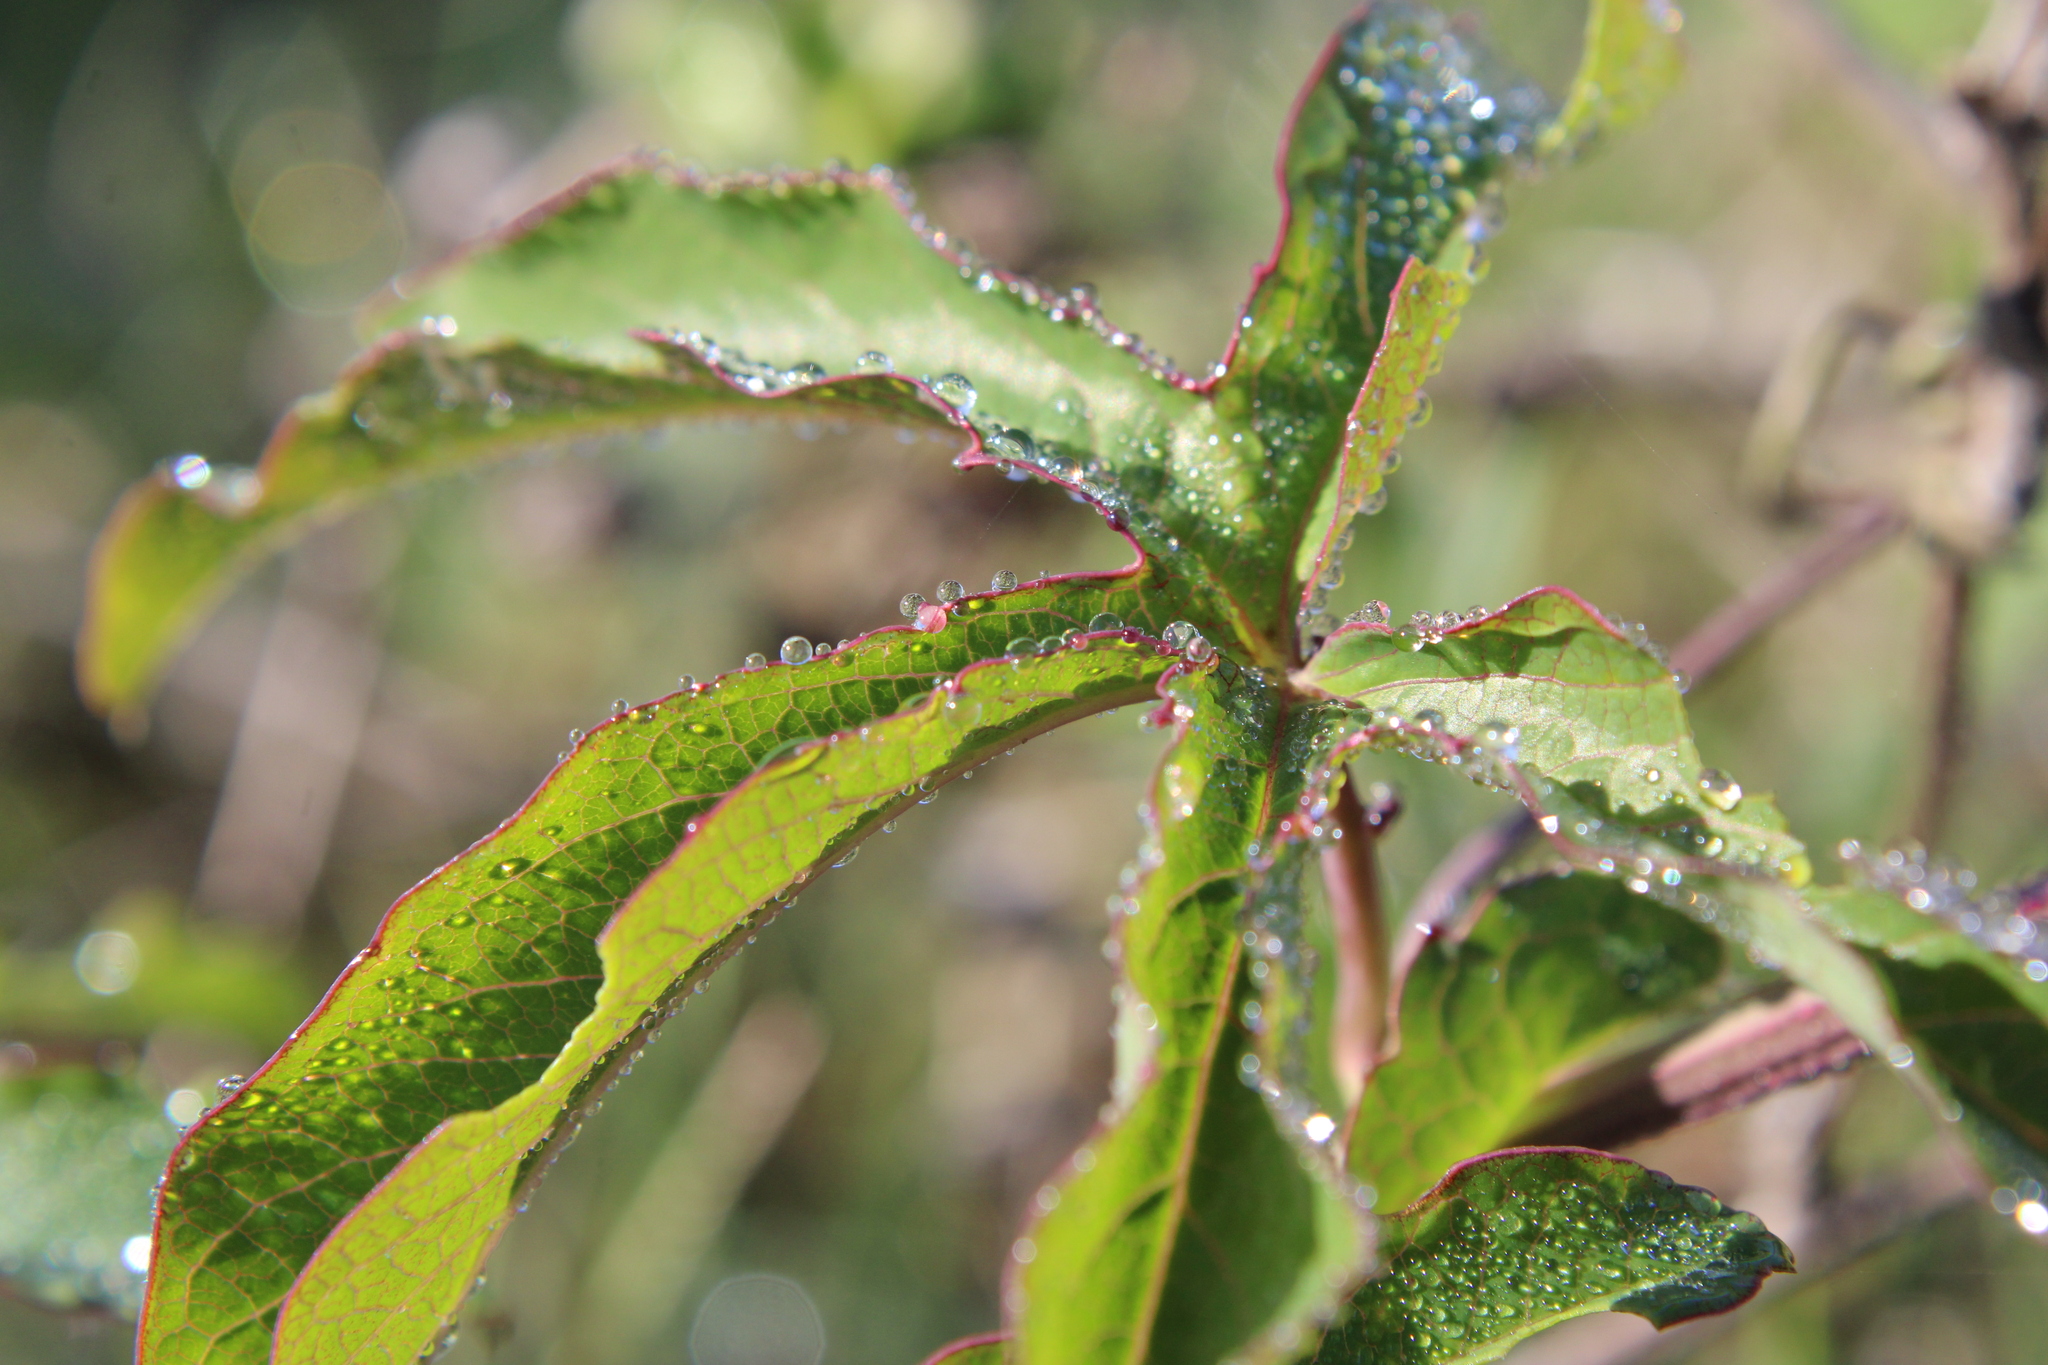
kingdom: Plantae
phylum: Tracheophyta
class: Magnoliopsida
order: Malpighiales
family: Passifloraceae
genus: Passiflora
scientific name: Passiflora caerulea
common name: Blue passionflower
